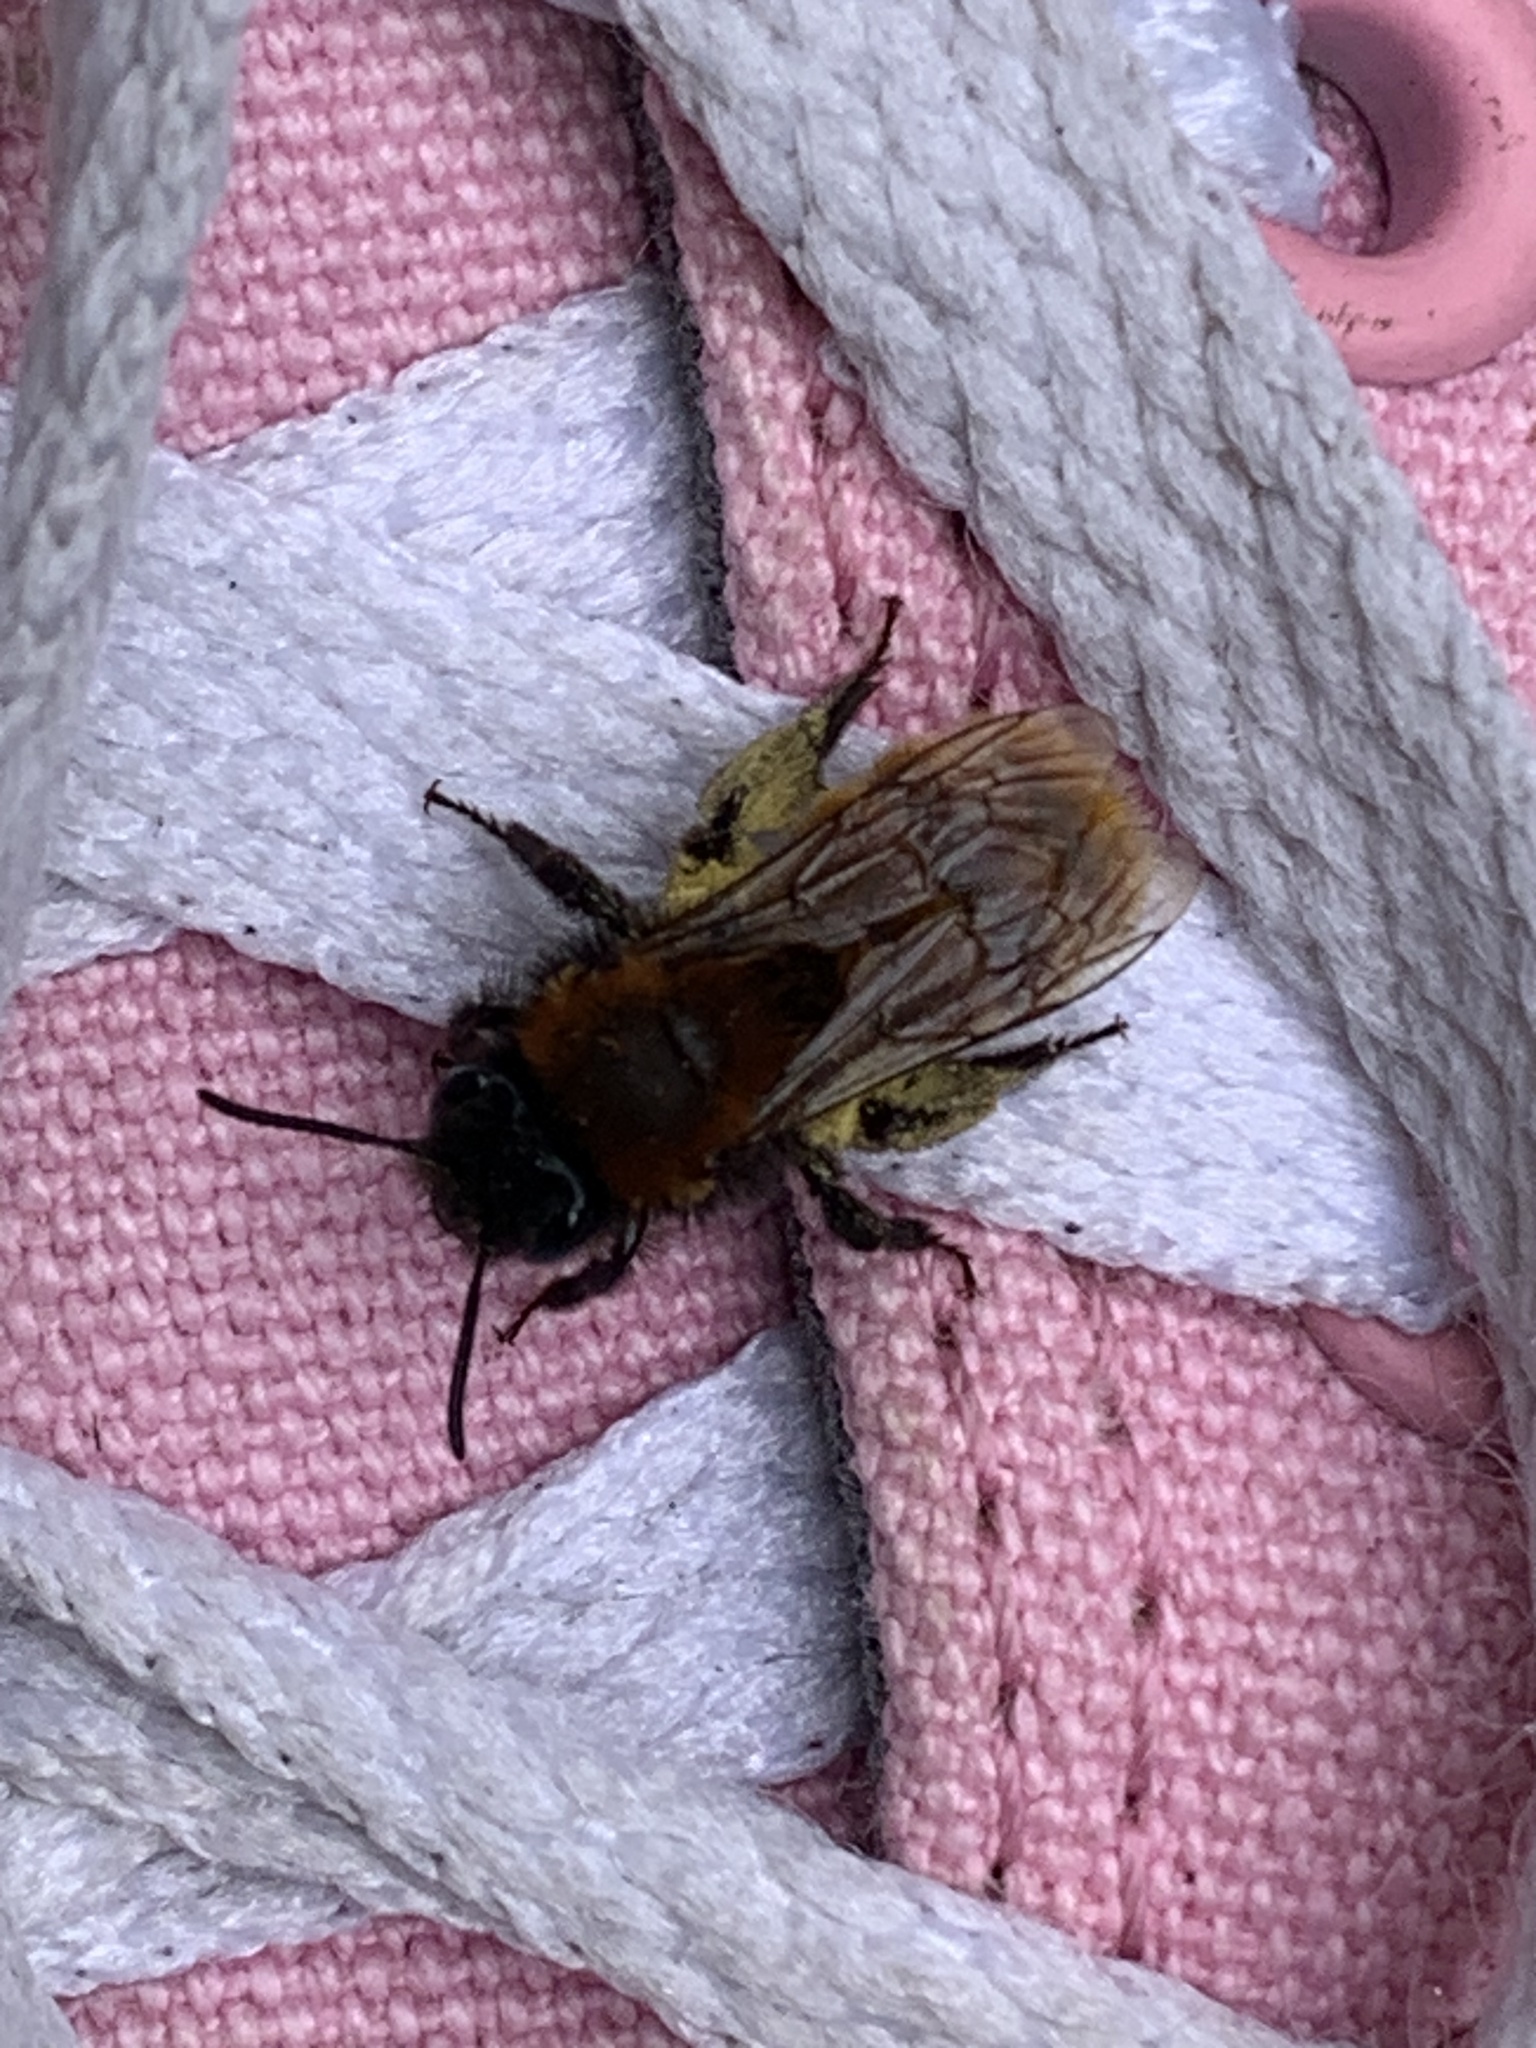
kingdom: Animalia
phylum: Arthropoda
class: Insecta
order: Hymenoptera
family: Andrenidae
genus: Andrena
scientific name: Andrena fulva
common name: Tawny mining bee
